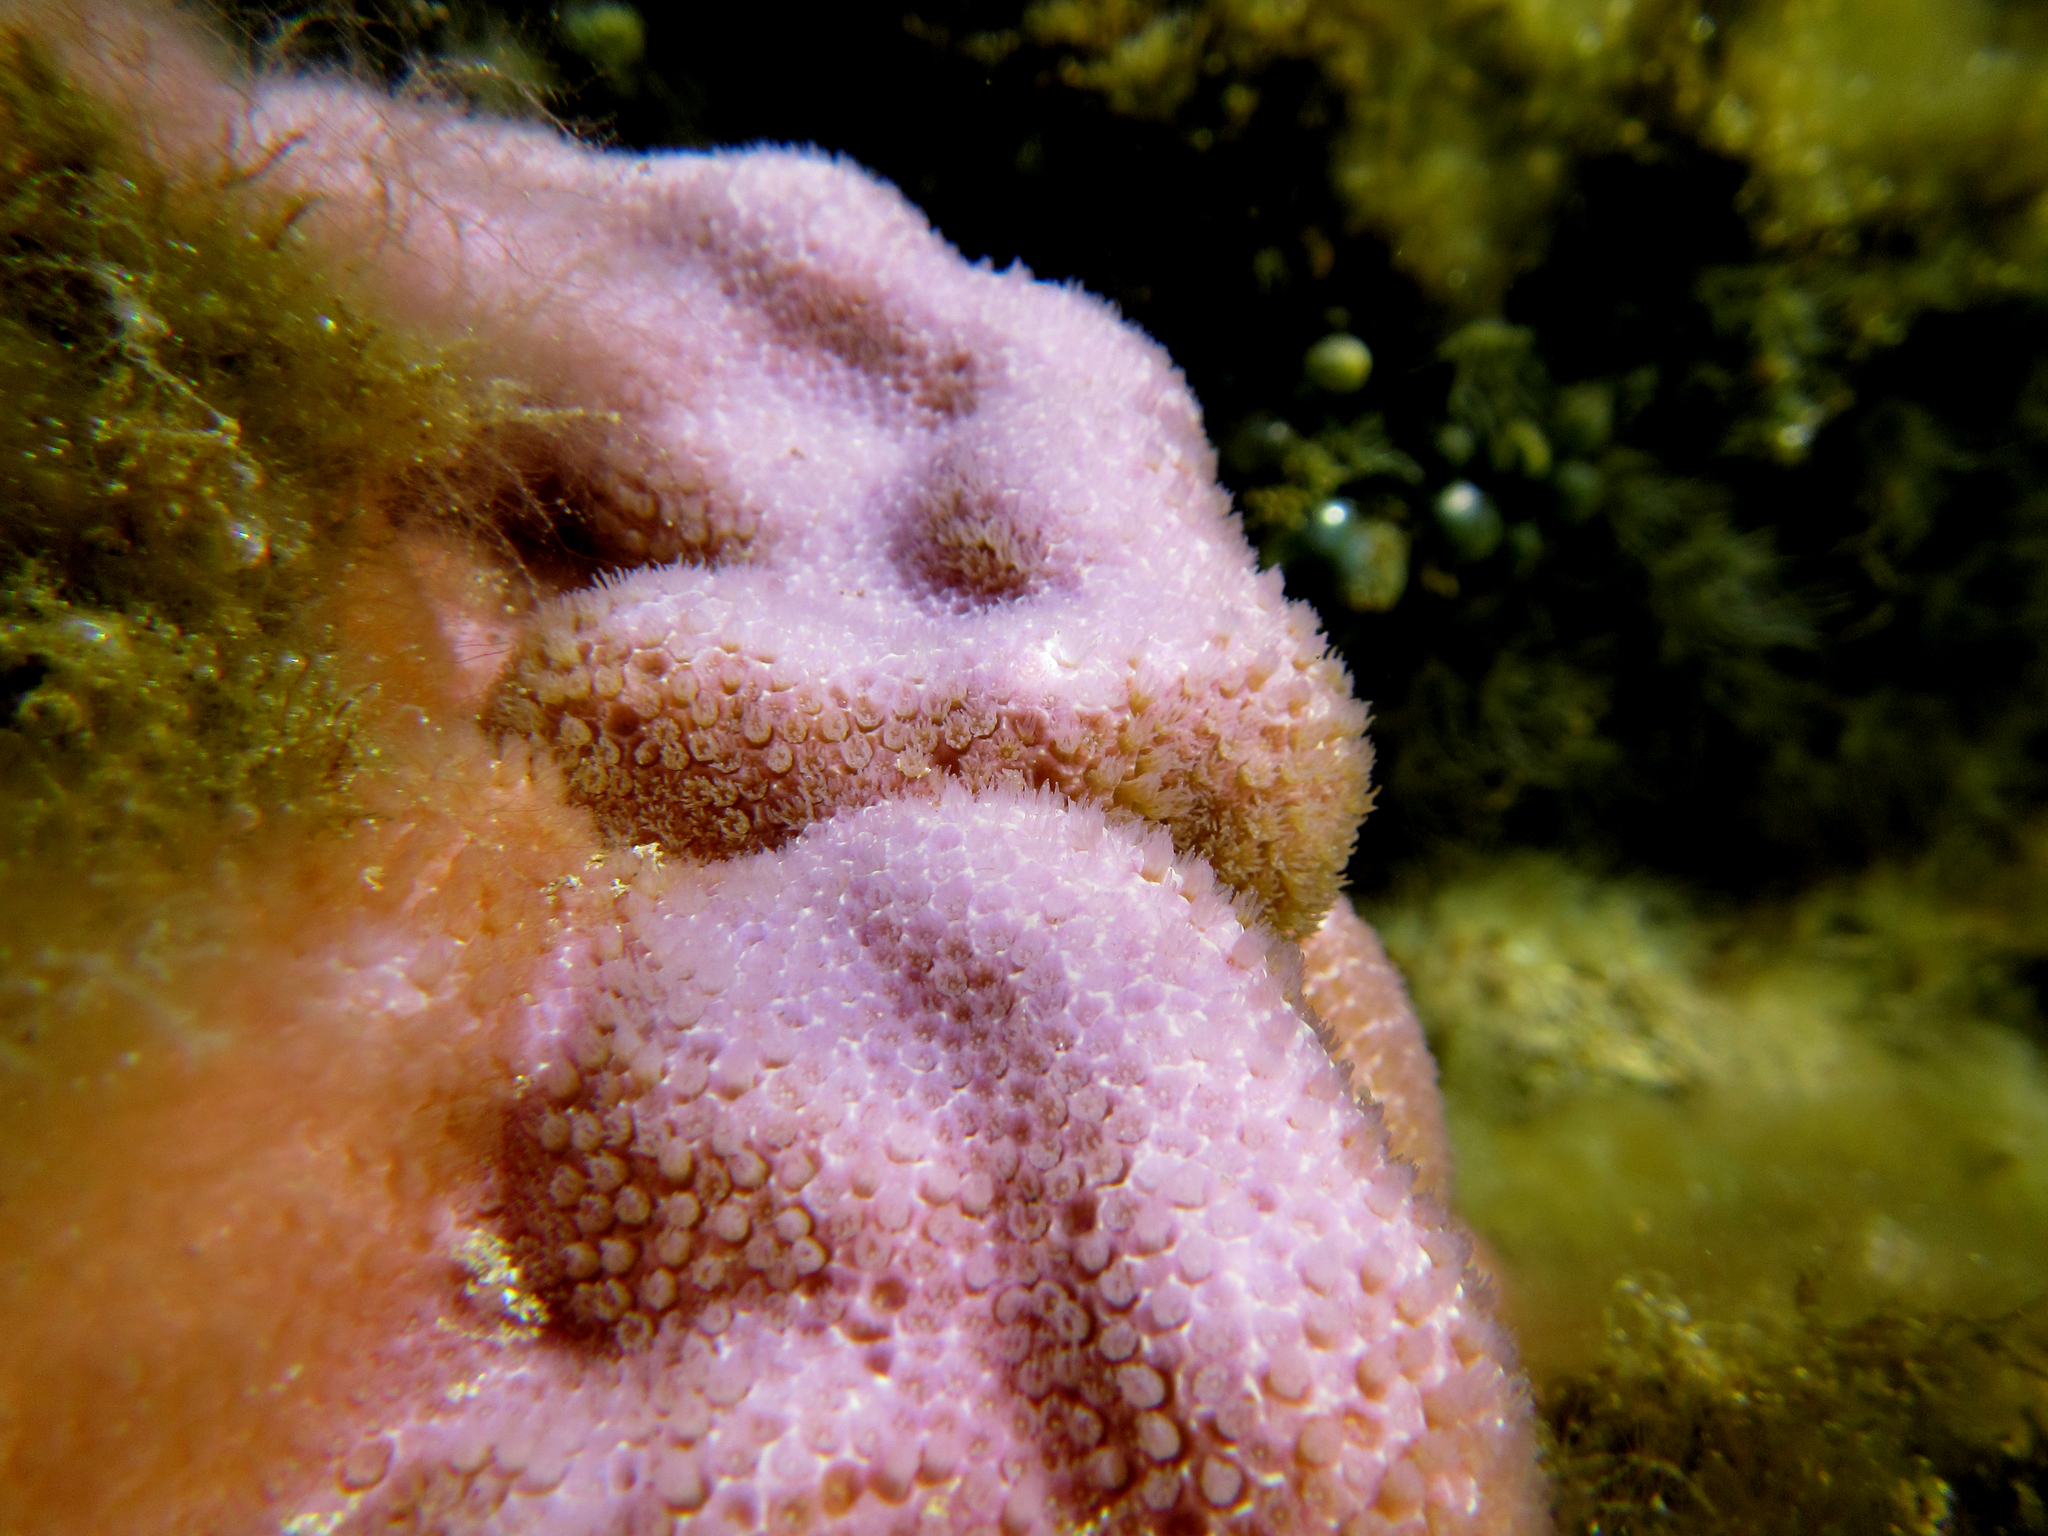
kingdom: Animalia
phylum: Cnidaria
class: Anthozoa
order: Scleractinia
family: Poritidae
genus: Porites
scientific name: Porites lobata
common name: Hump coral
